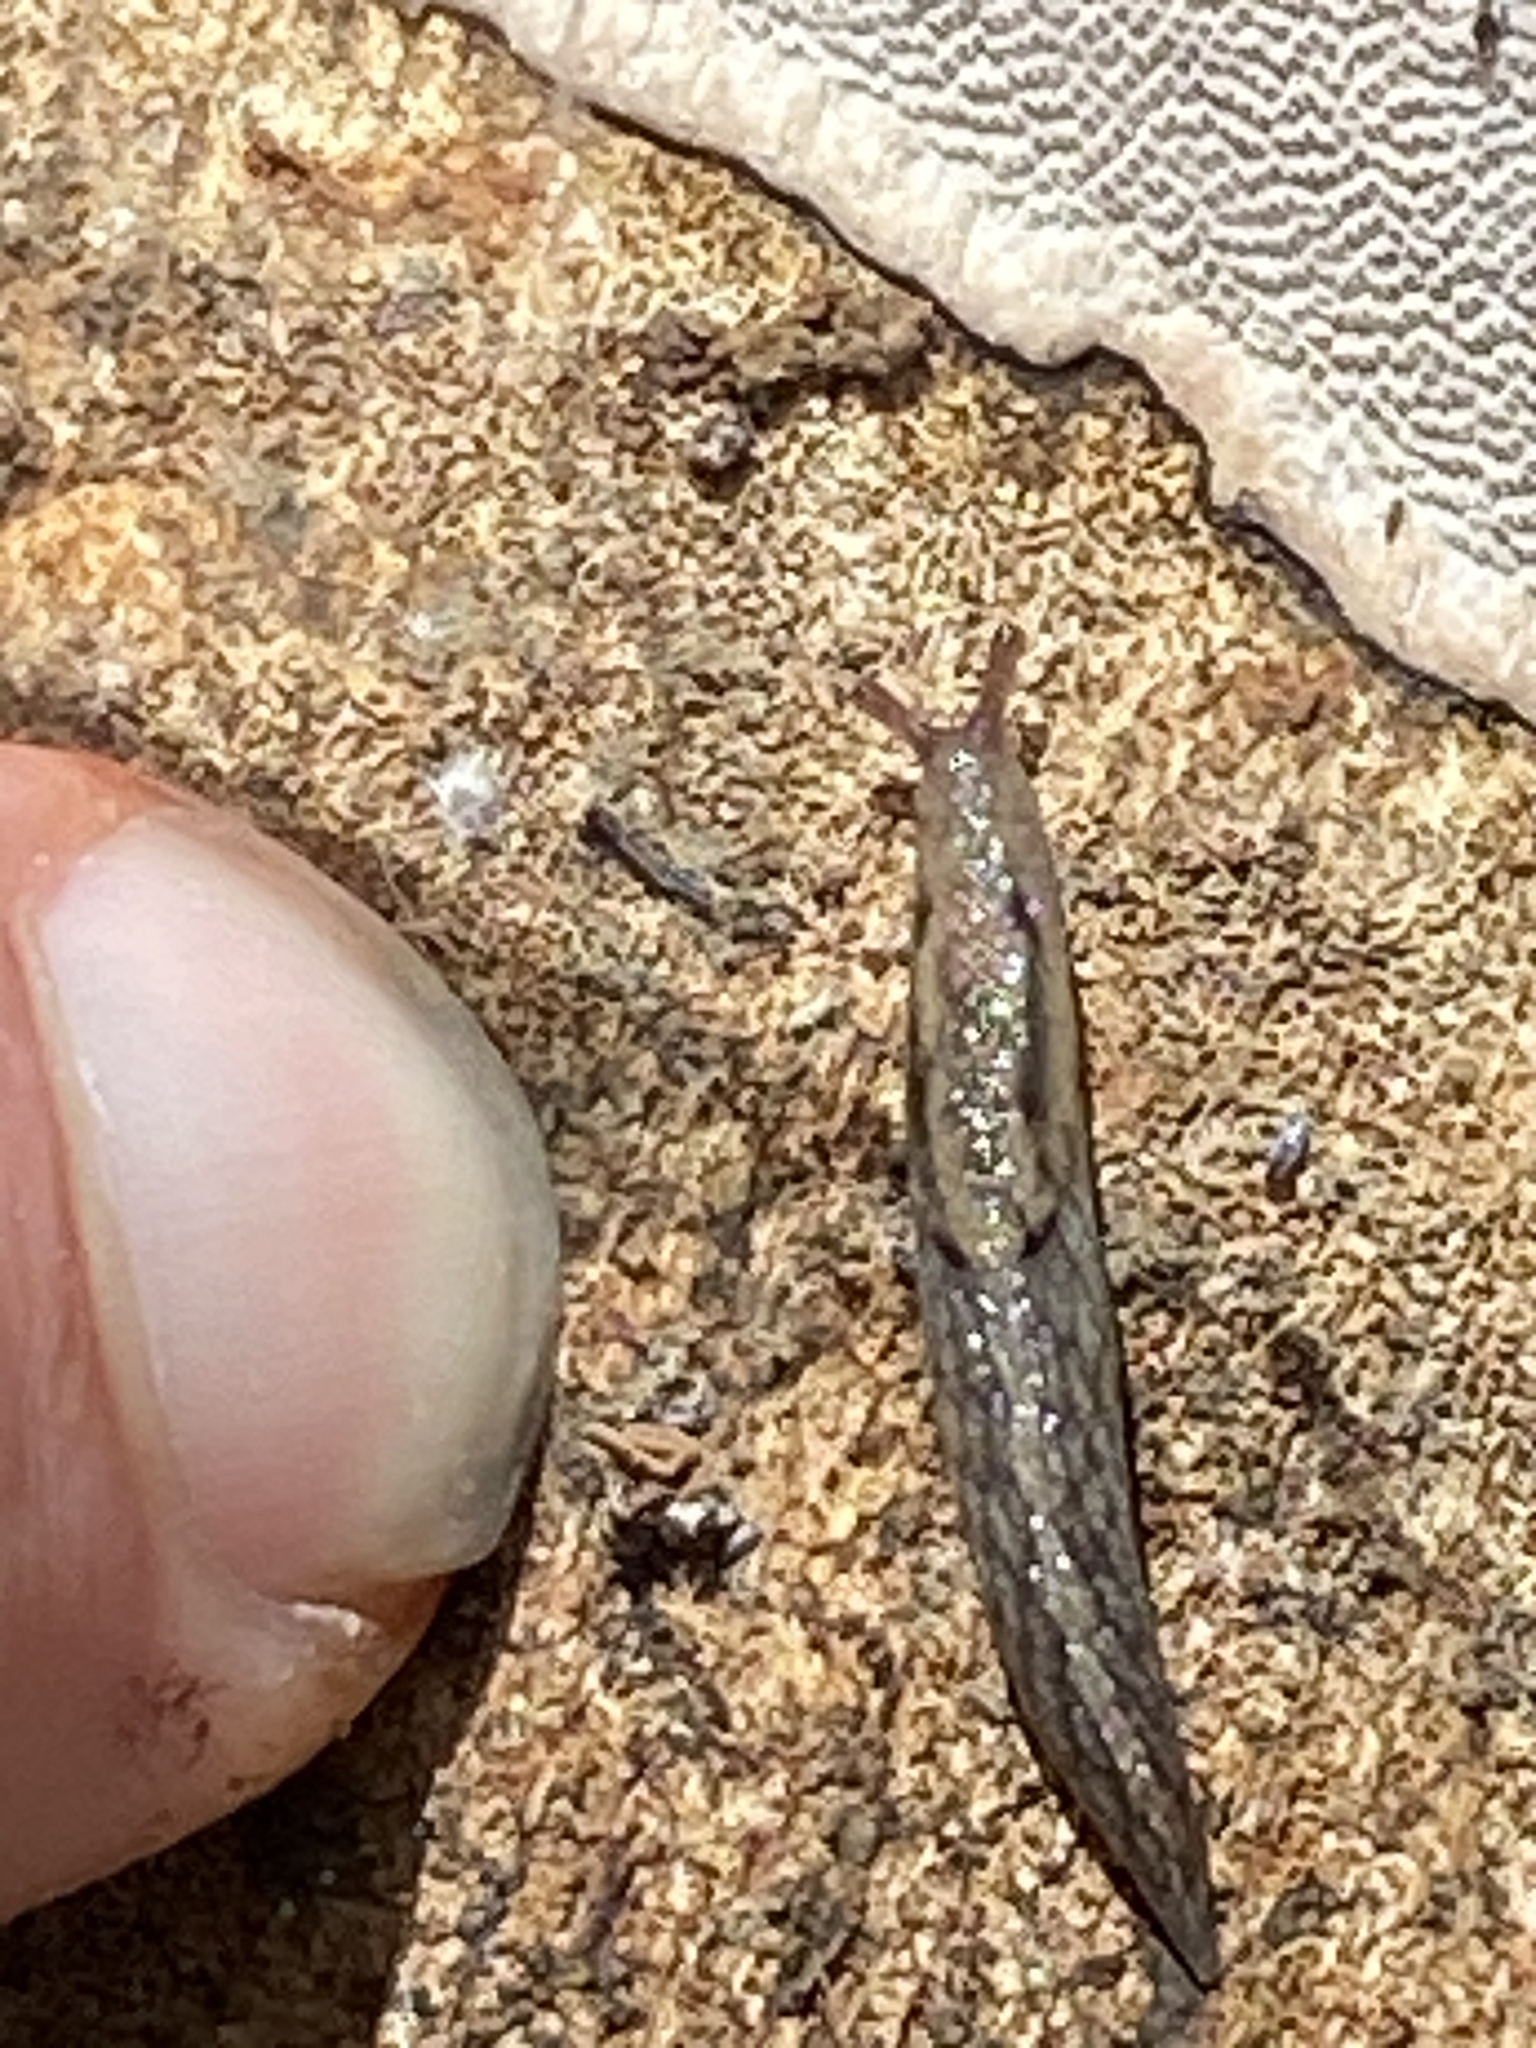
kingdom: Animalia
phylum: Mollusca
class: Gastropoda
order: Stylommatophora
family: Ariolimacidae
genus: Prophysaon
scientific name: Prophysaon andersonii
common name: Reticulate taildropper
